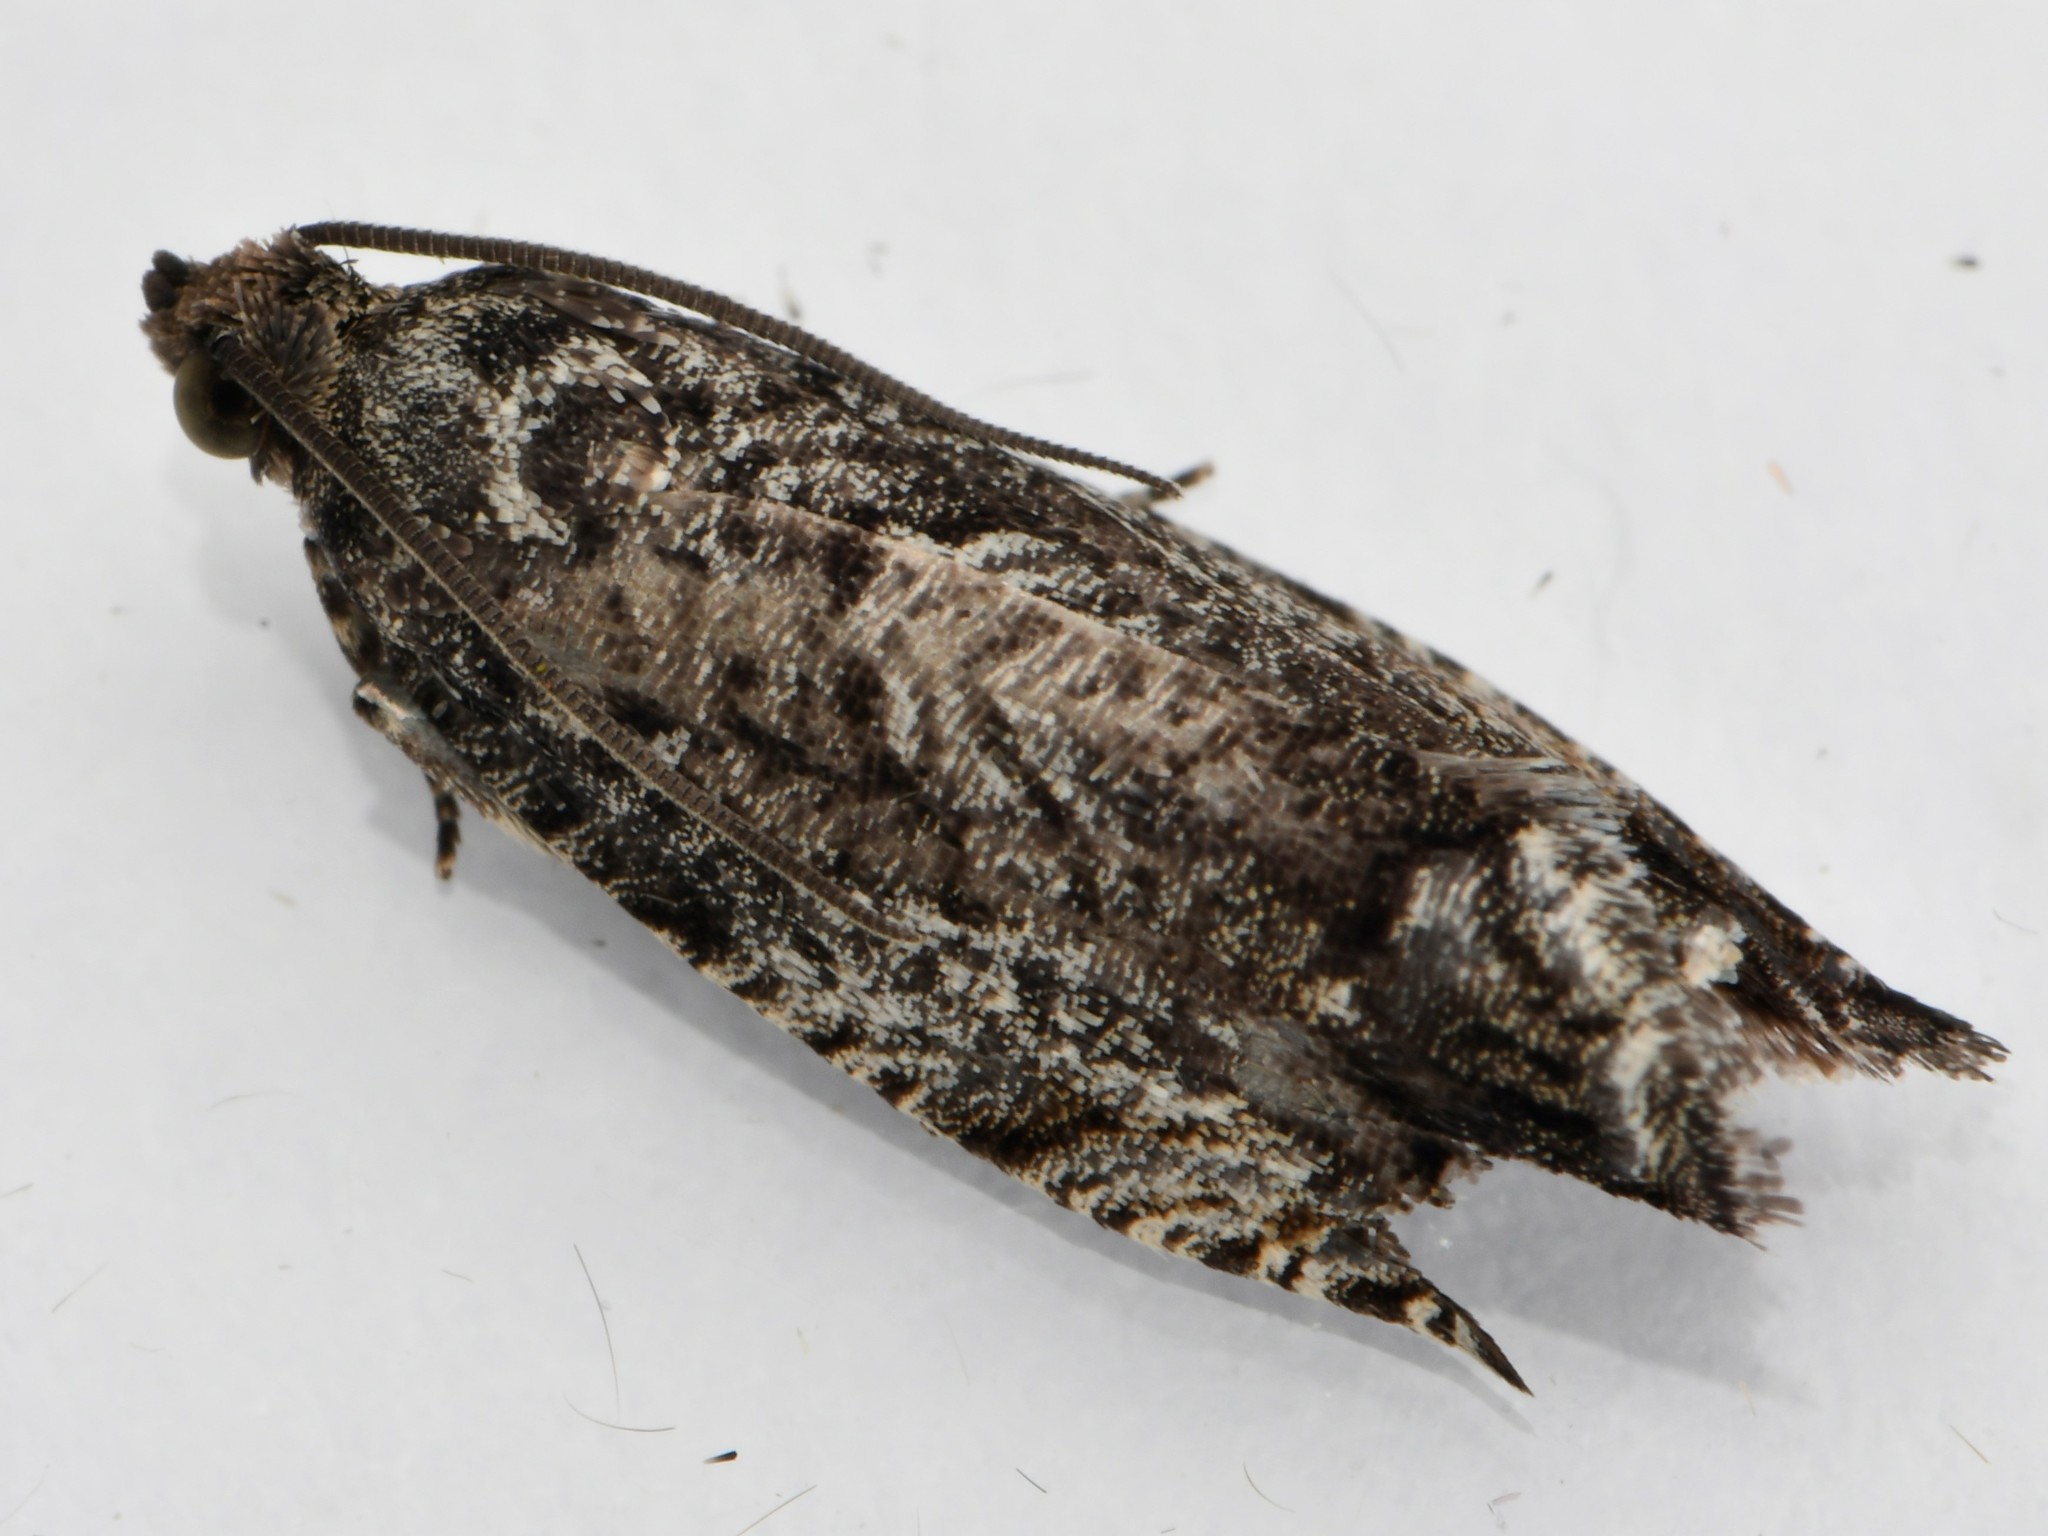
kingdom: Animalia
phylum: Arthropoda
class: Insecta
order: Lepidoptera
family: Tortricidae
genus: Cydia
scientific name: Cydia fagiglandana
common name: Large beech piercer
